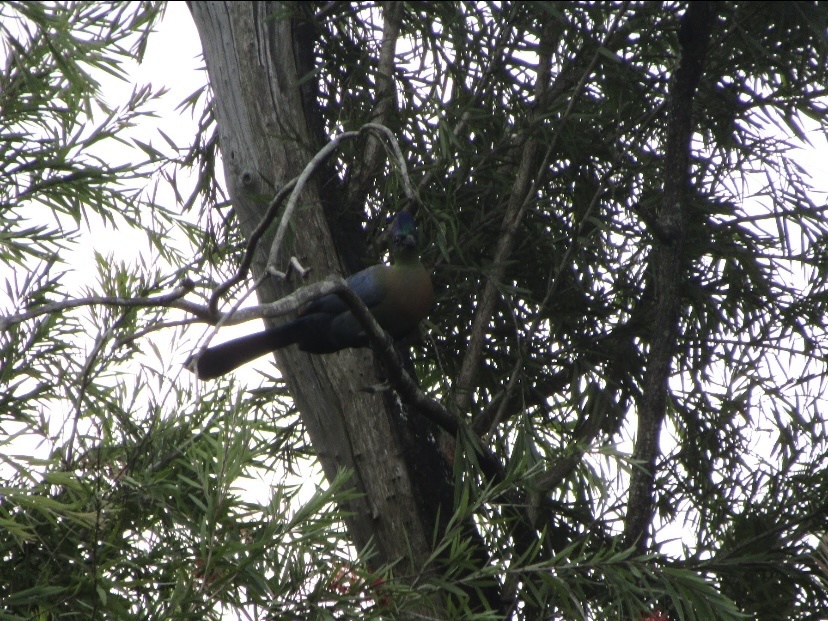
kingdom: Animalia
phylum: Chordata
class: Aves
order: Musophagiformes
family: Musophagidae
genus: Tauraco
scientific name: Tauraco porphyreolophus
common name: Purple-crested turaco
